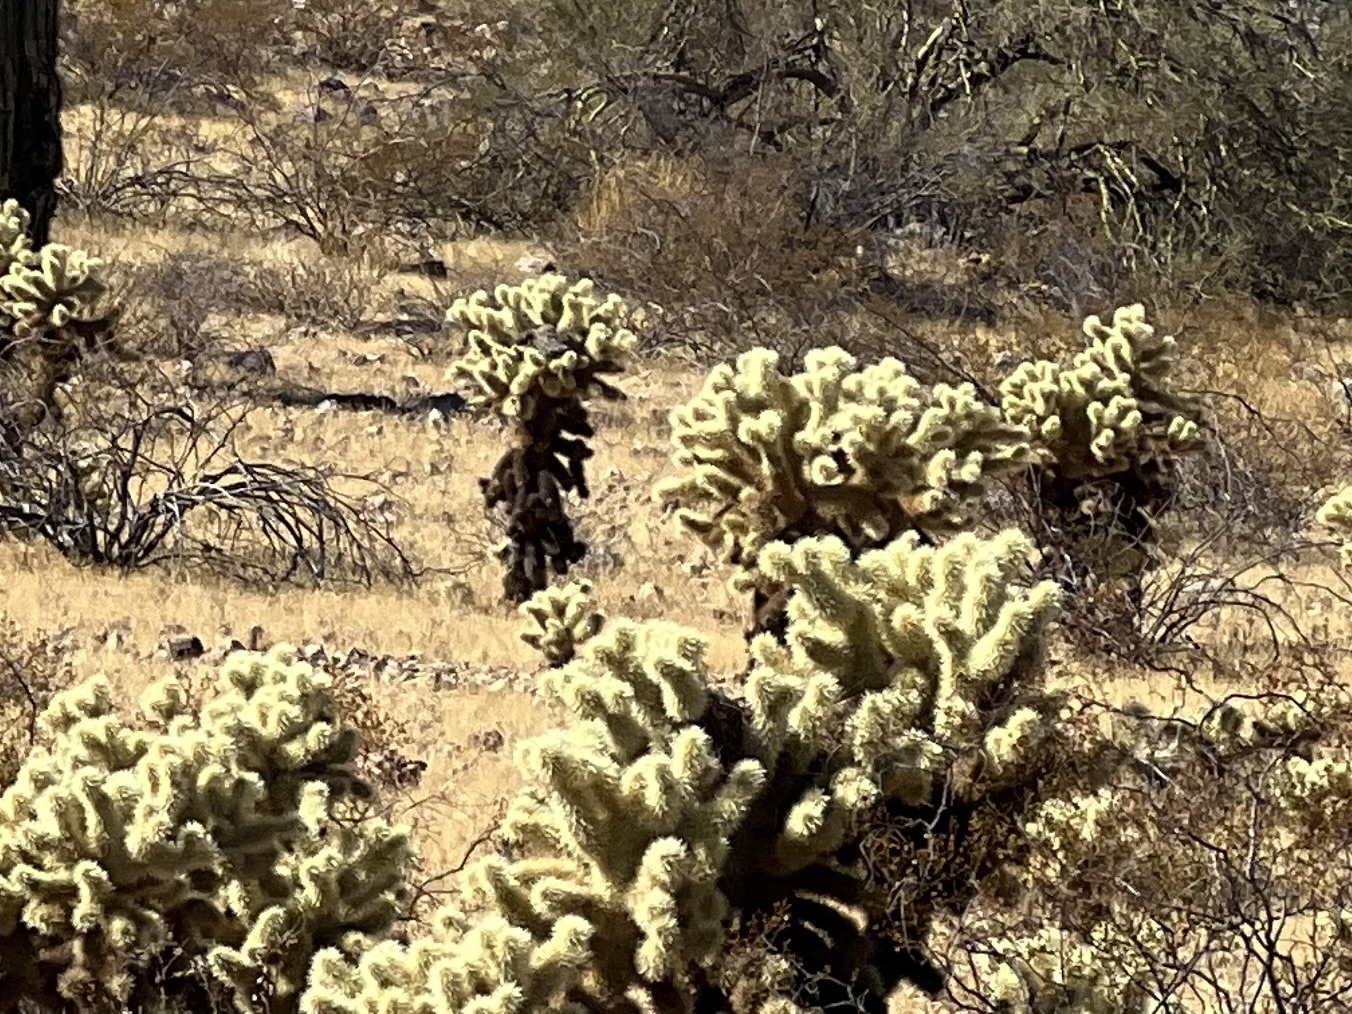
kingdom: Plantae
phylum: Tracheophyta
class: Magnoliopsida
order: Caryophyllales
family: Cactaceae
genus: Cylindropuntia
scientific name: Cylindropuntia fosbergii
